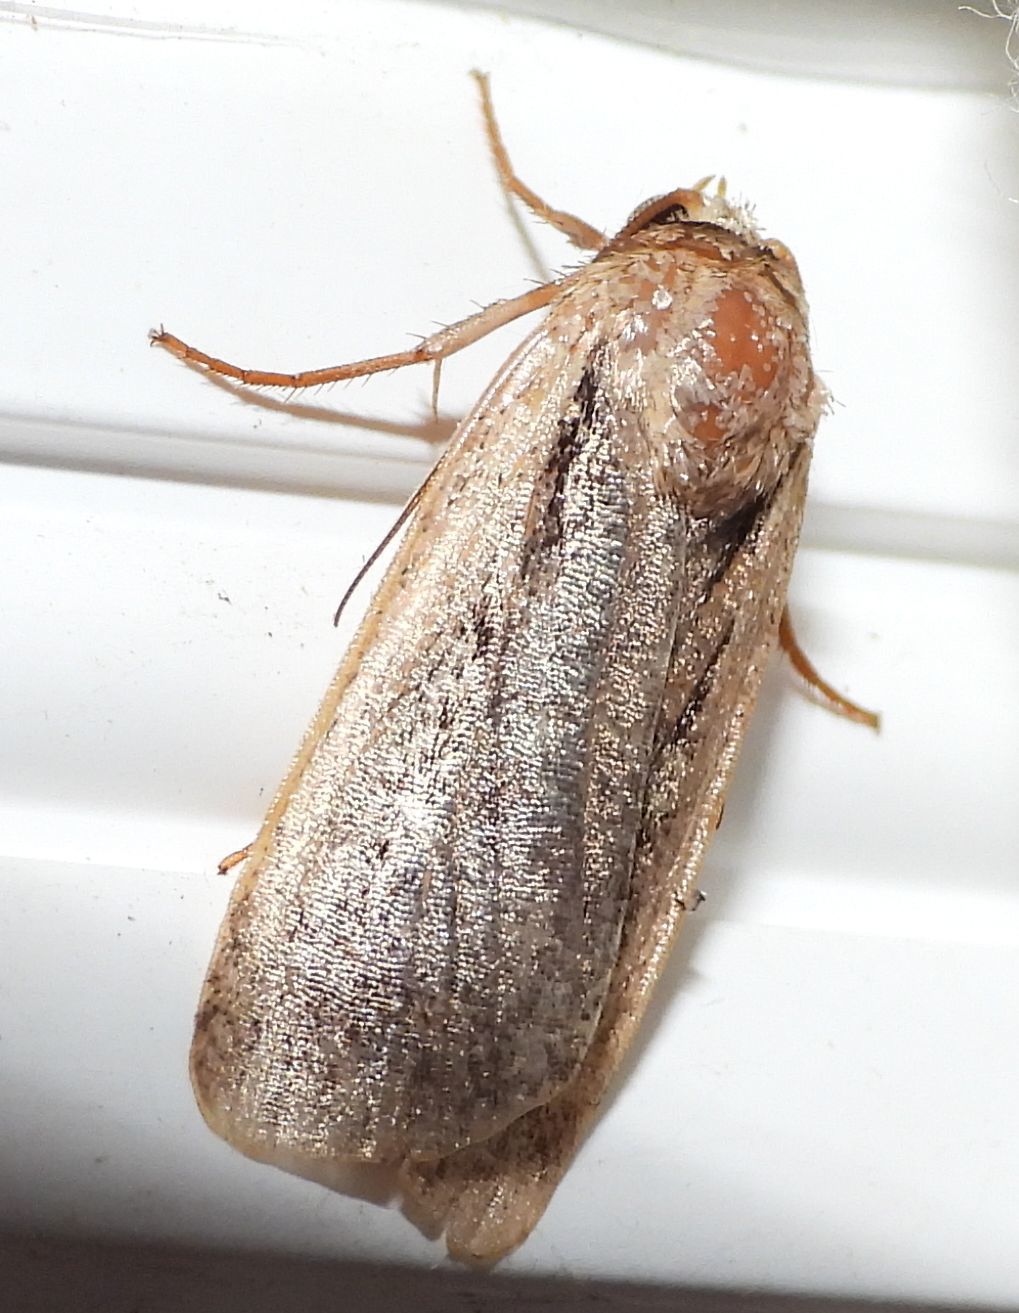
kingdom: Animalia
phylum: Arthropoda
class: Insecta
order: Lepidoptera
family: Noctuidae
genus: Ochropleura
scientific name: Ochropleura implecta
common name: Flame-shouldered dart
